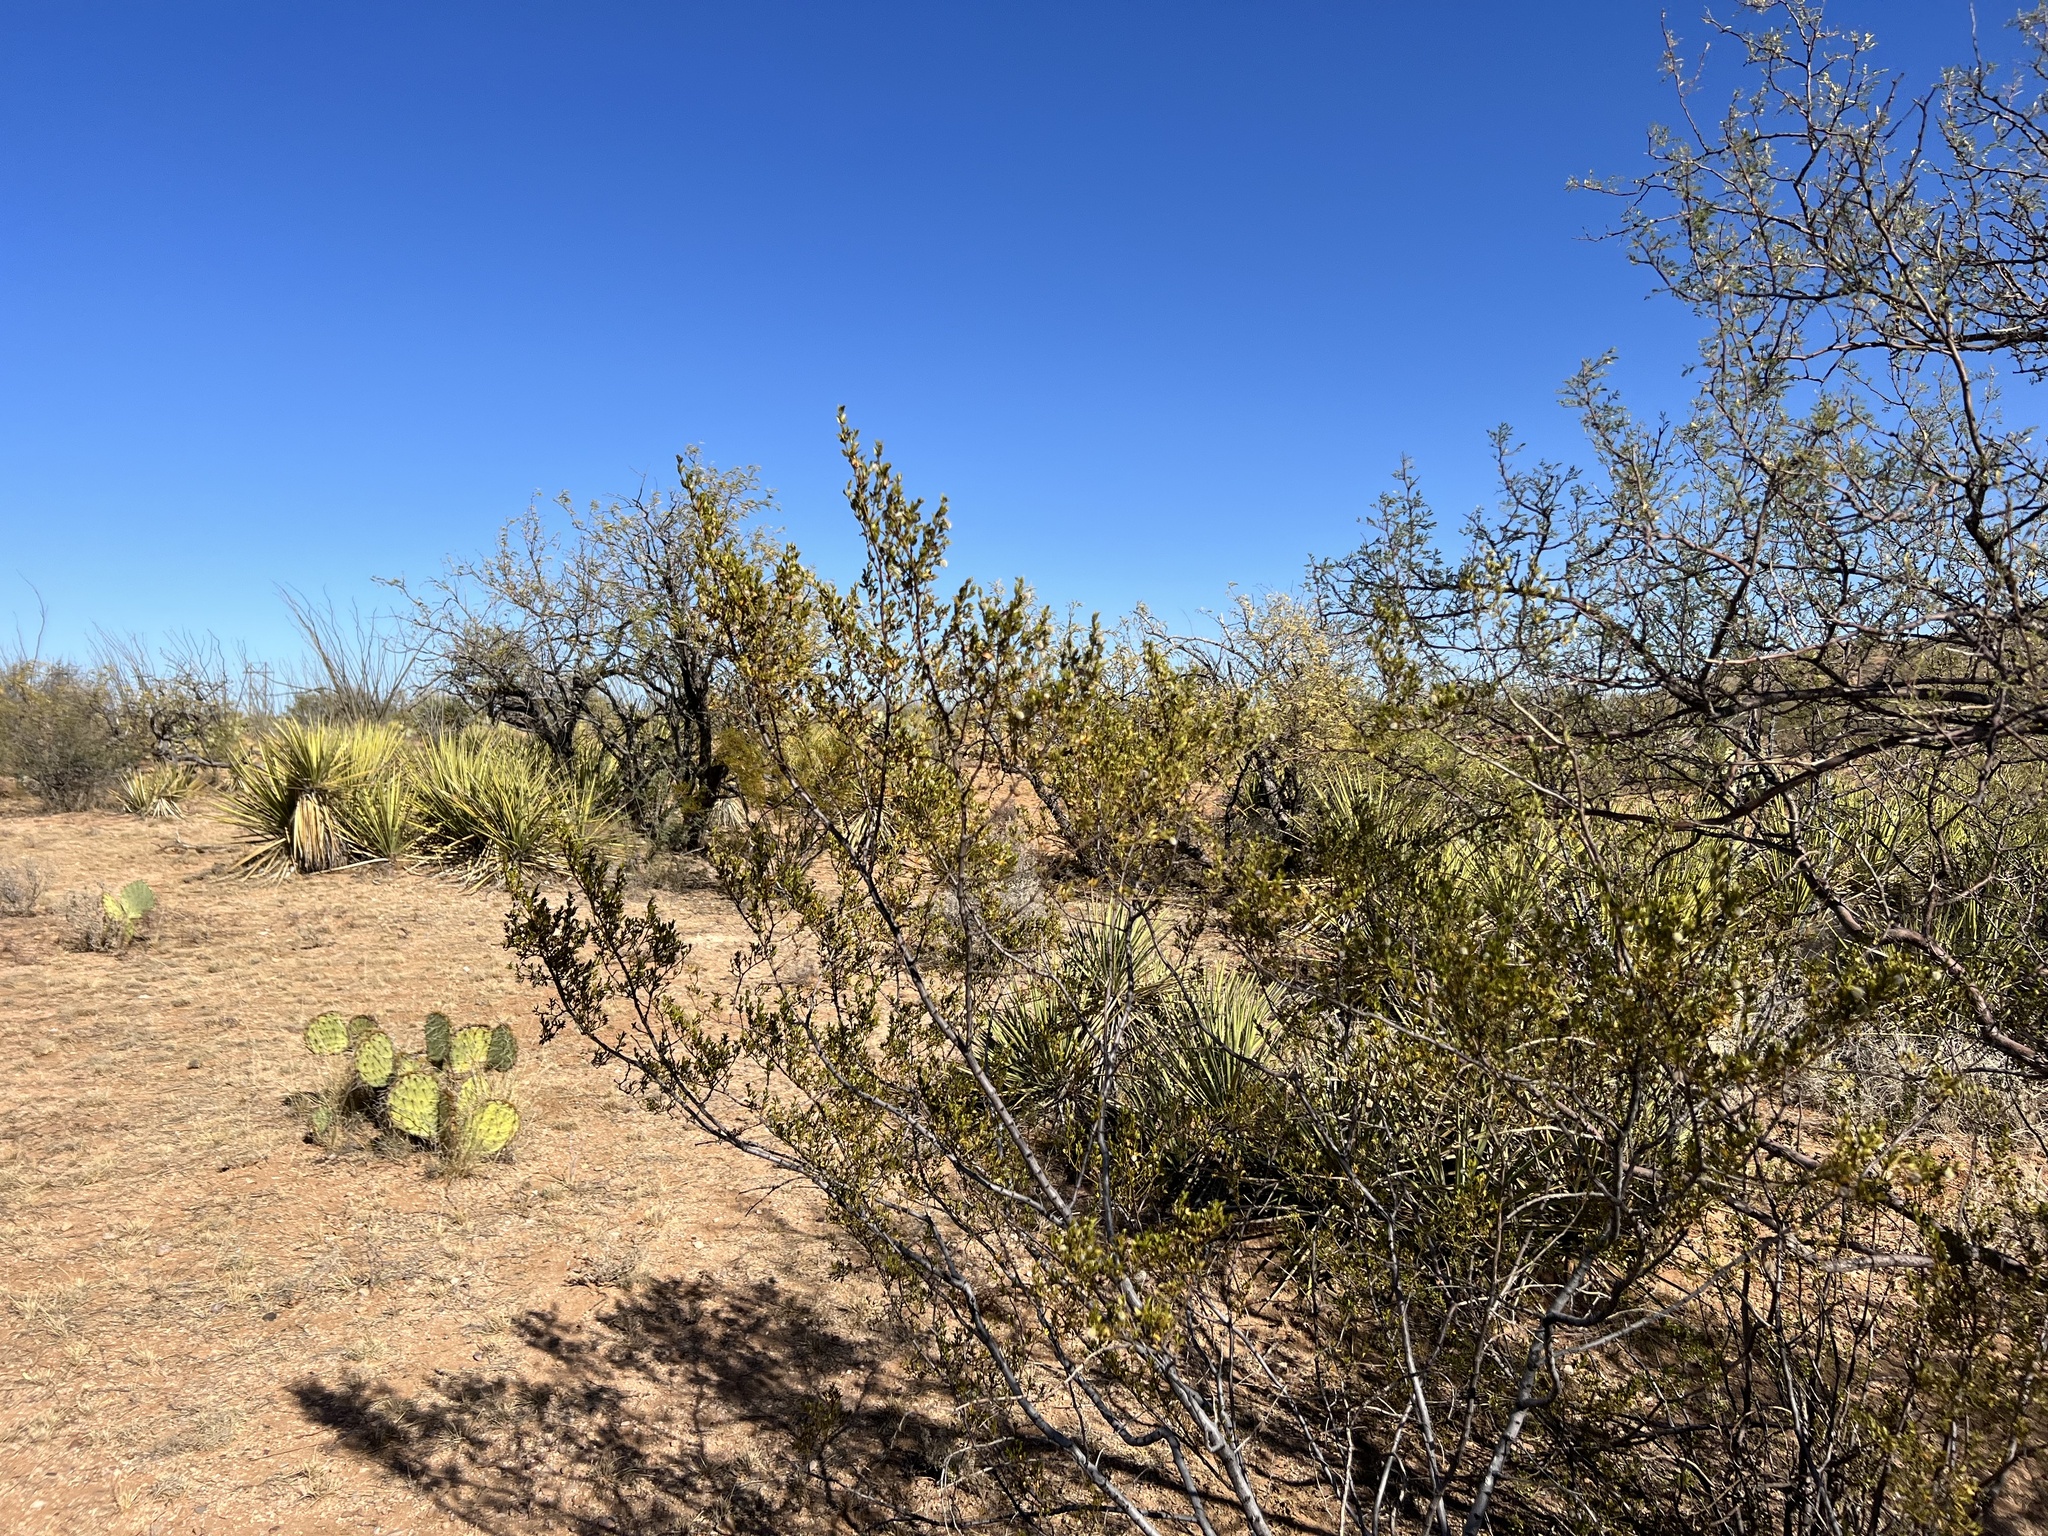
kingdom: Plantae
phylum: Tracheophyta
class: Magnoliopsida
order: Zygophyllales
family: Zygophyllaceae
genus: Larrea
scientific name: Larrea tridentata
